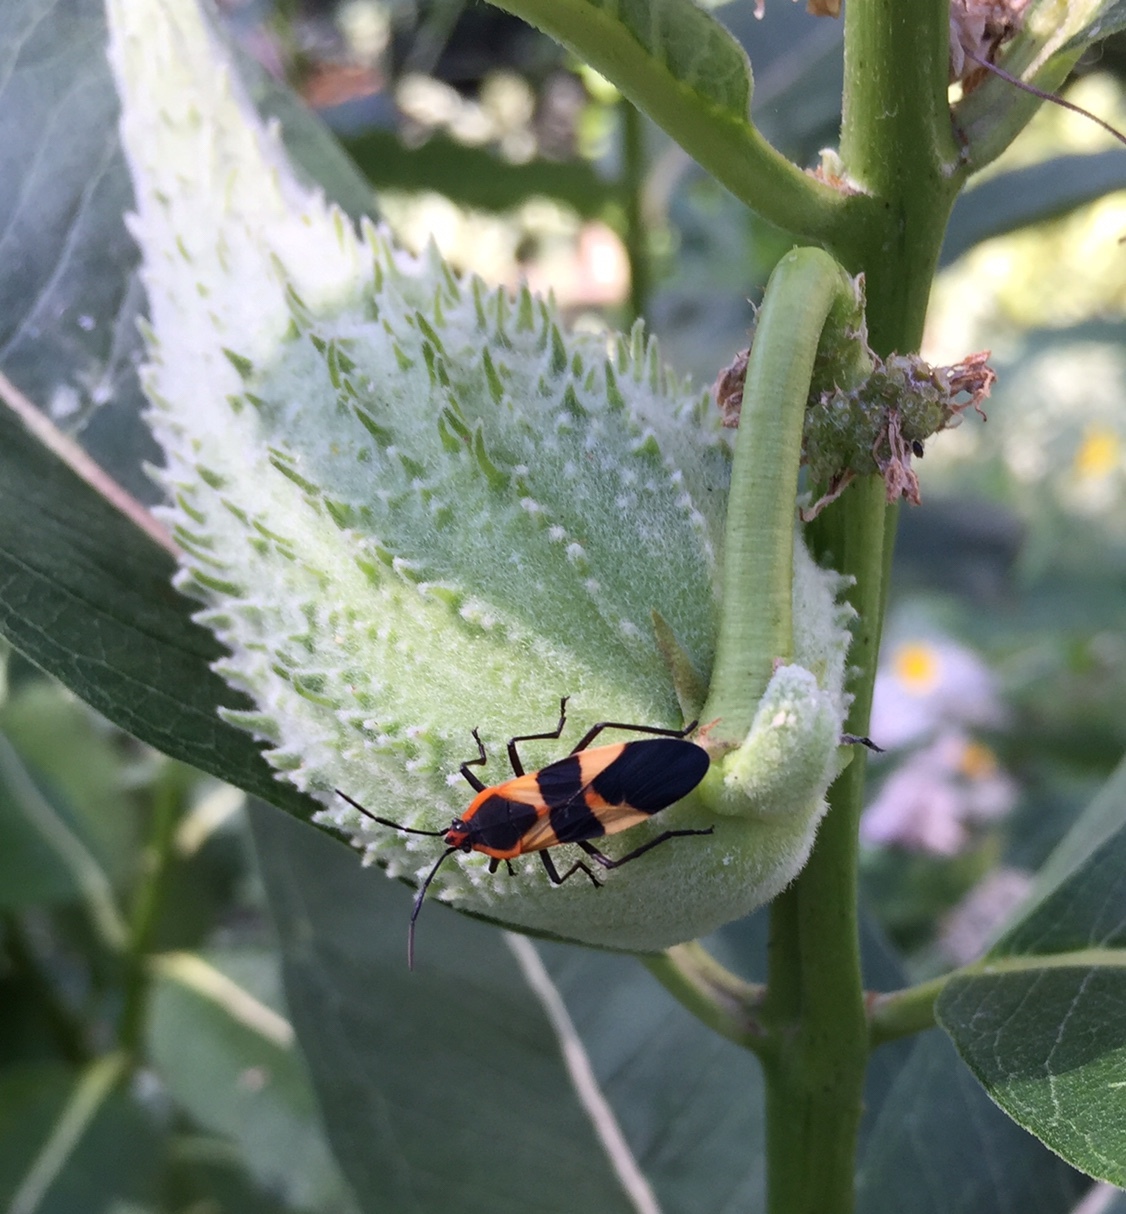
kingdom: Animalia
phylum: Arthropoda
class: Insecta
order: Hemiptera
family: Lygaeidae
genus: Oncopeltus
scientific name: Oncopeltus fasciatus
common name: Large milkweed bug
